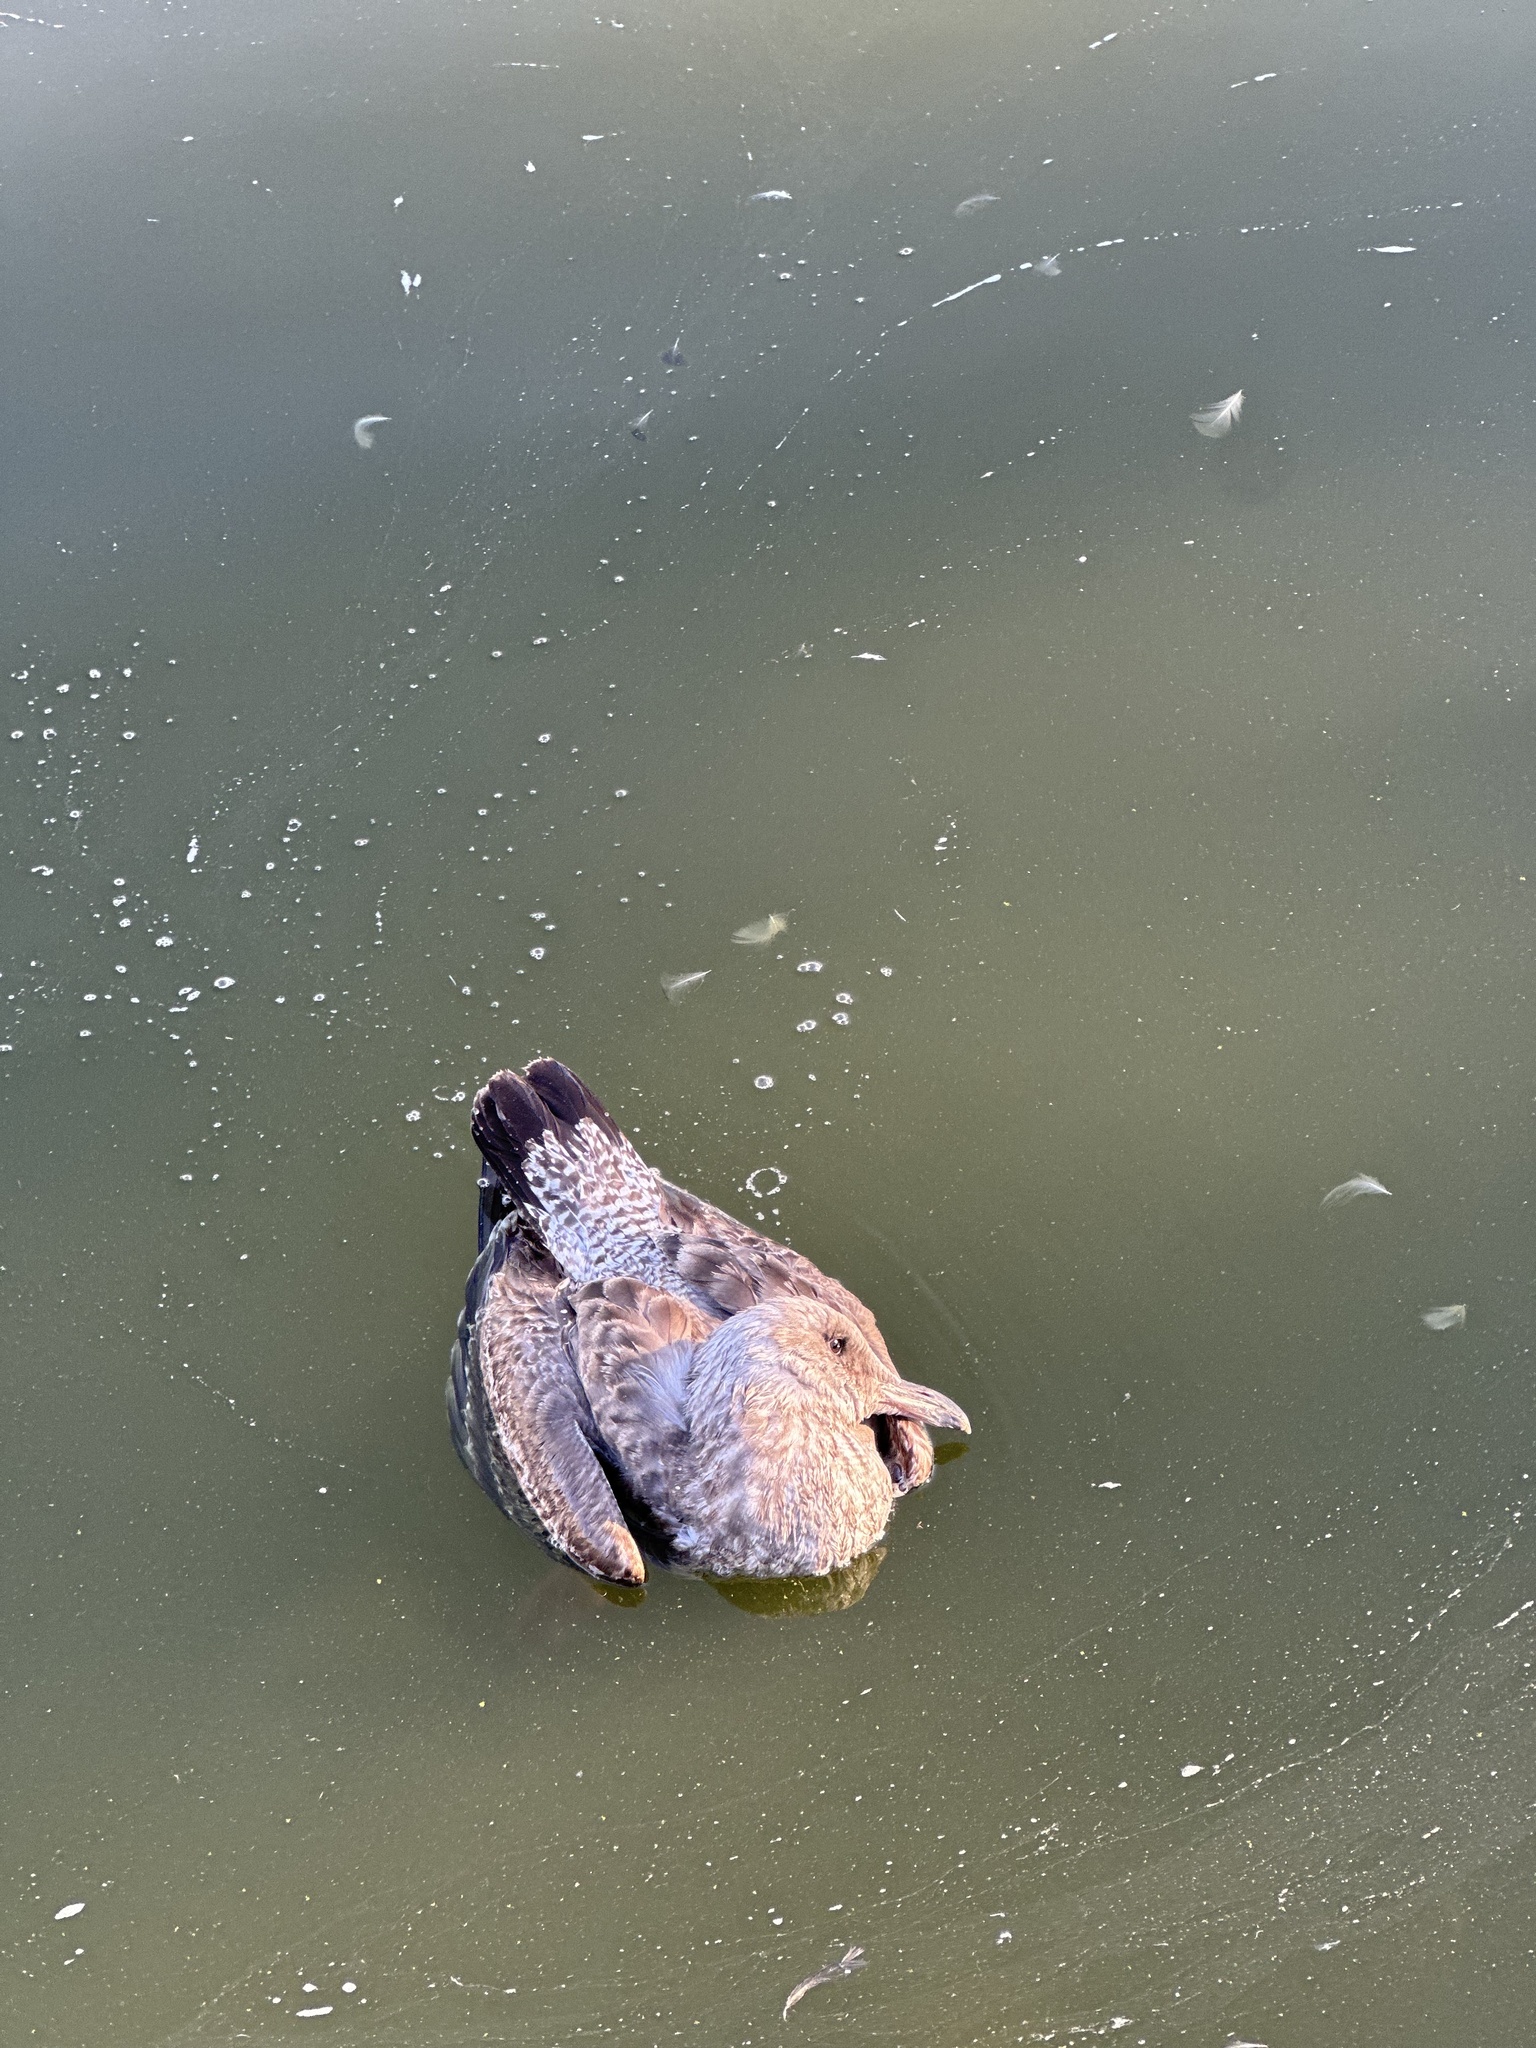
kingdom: Animalia
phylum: Chordata
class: Aves
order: Charadriiformes
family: Laridae
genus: Larus
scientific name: Larus occidentalis
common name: Western gull
